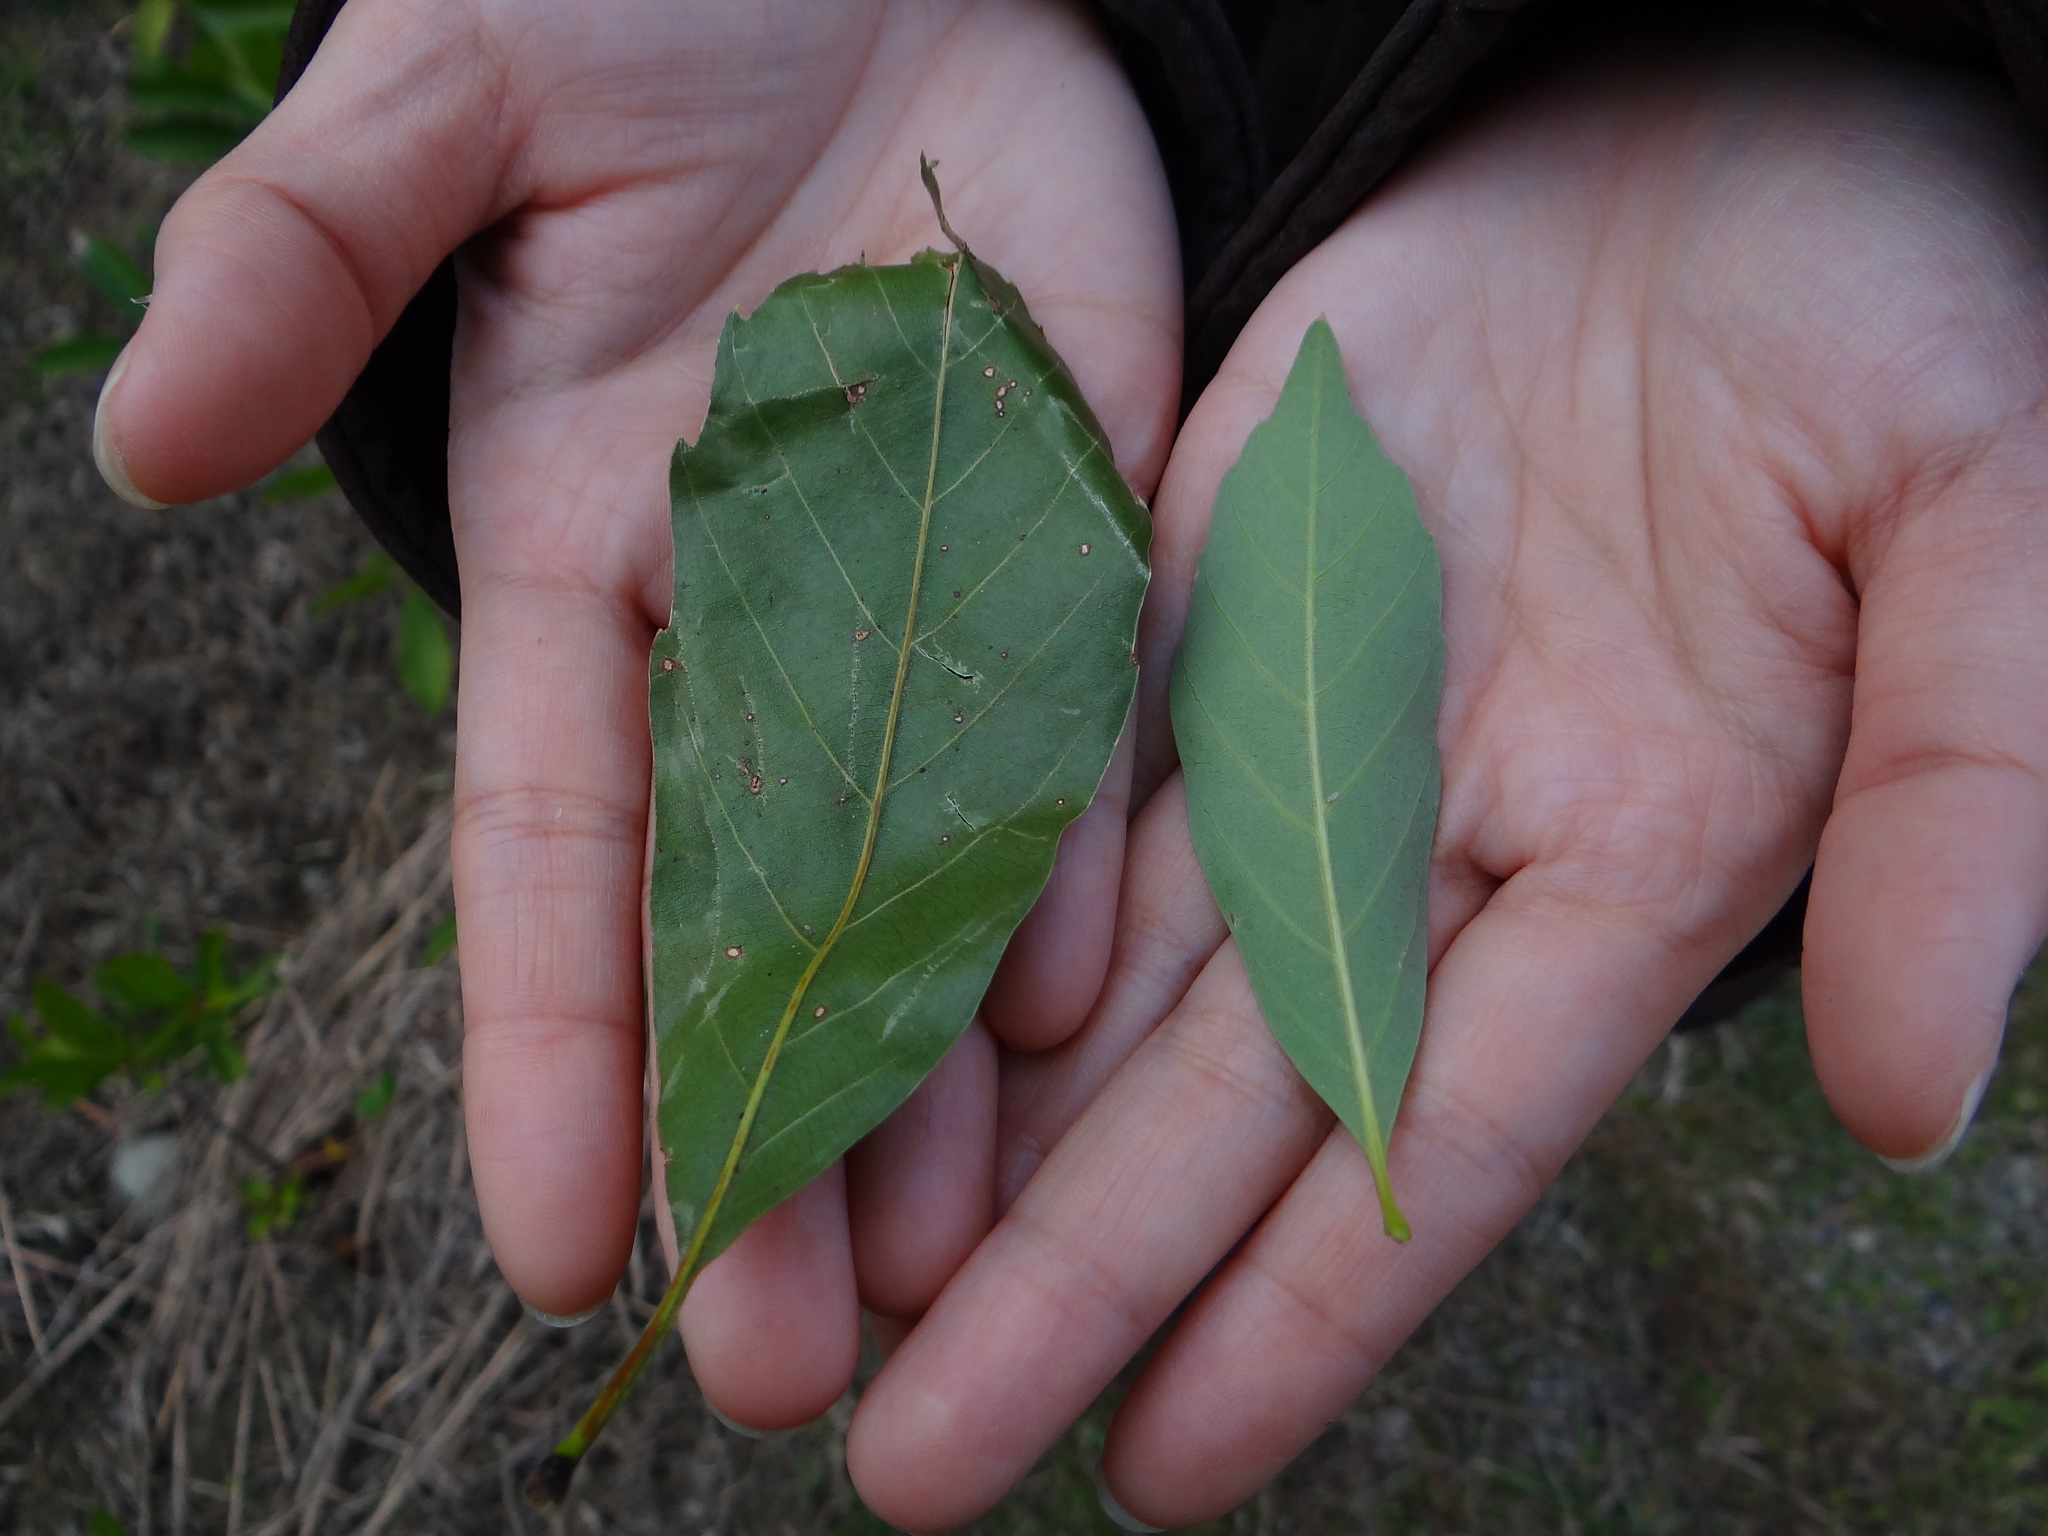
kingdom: Plantae
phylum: Tracheophyta
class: Magnoliopsida
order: Fagales
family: Fagaceae
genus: Quercus
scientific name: Quercus morii
